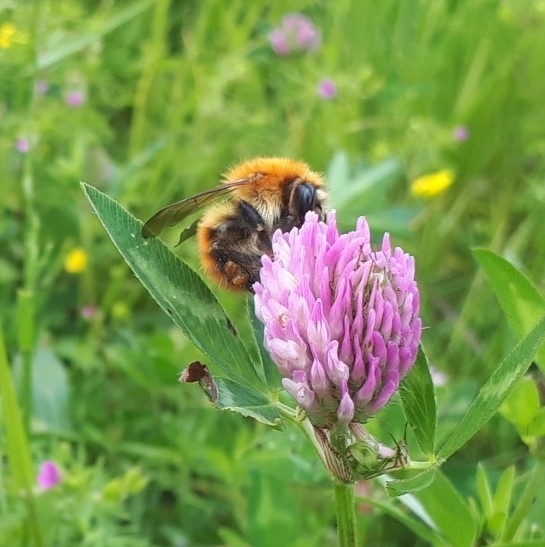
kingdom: Animalia
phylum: Arthropoda
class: Insecta
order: Hymenoptera
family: Apidae
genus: Bombus
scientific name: Bombus pascuorum
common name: Common carder bee
